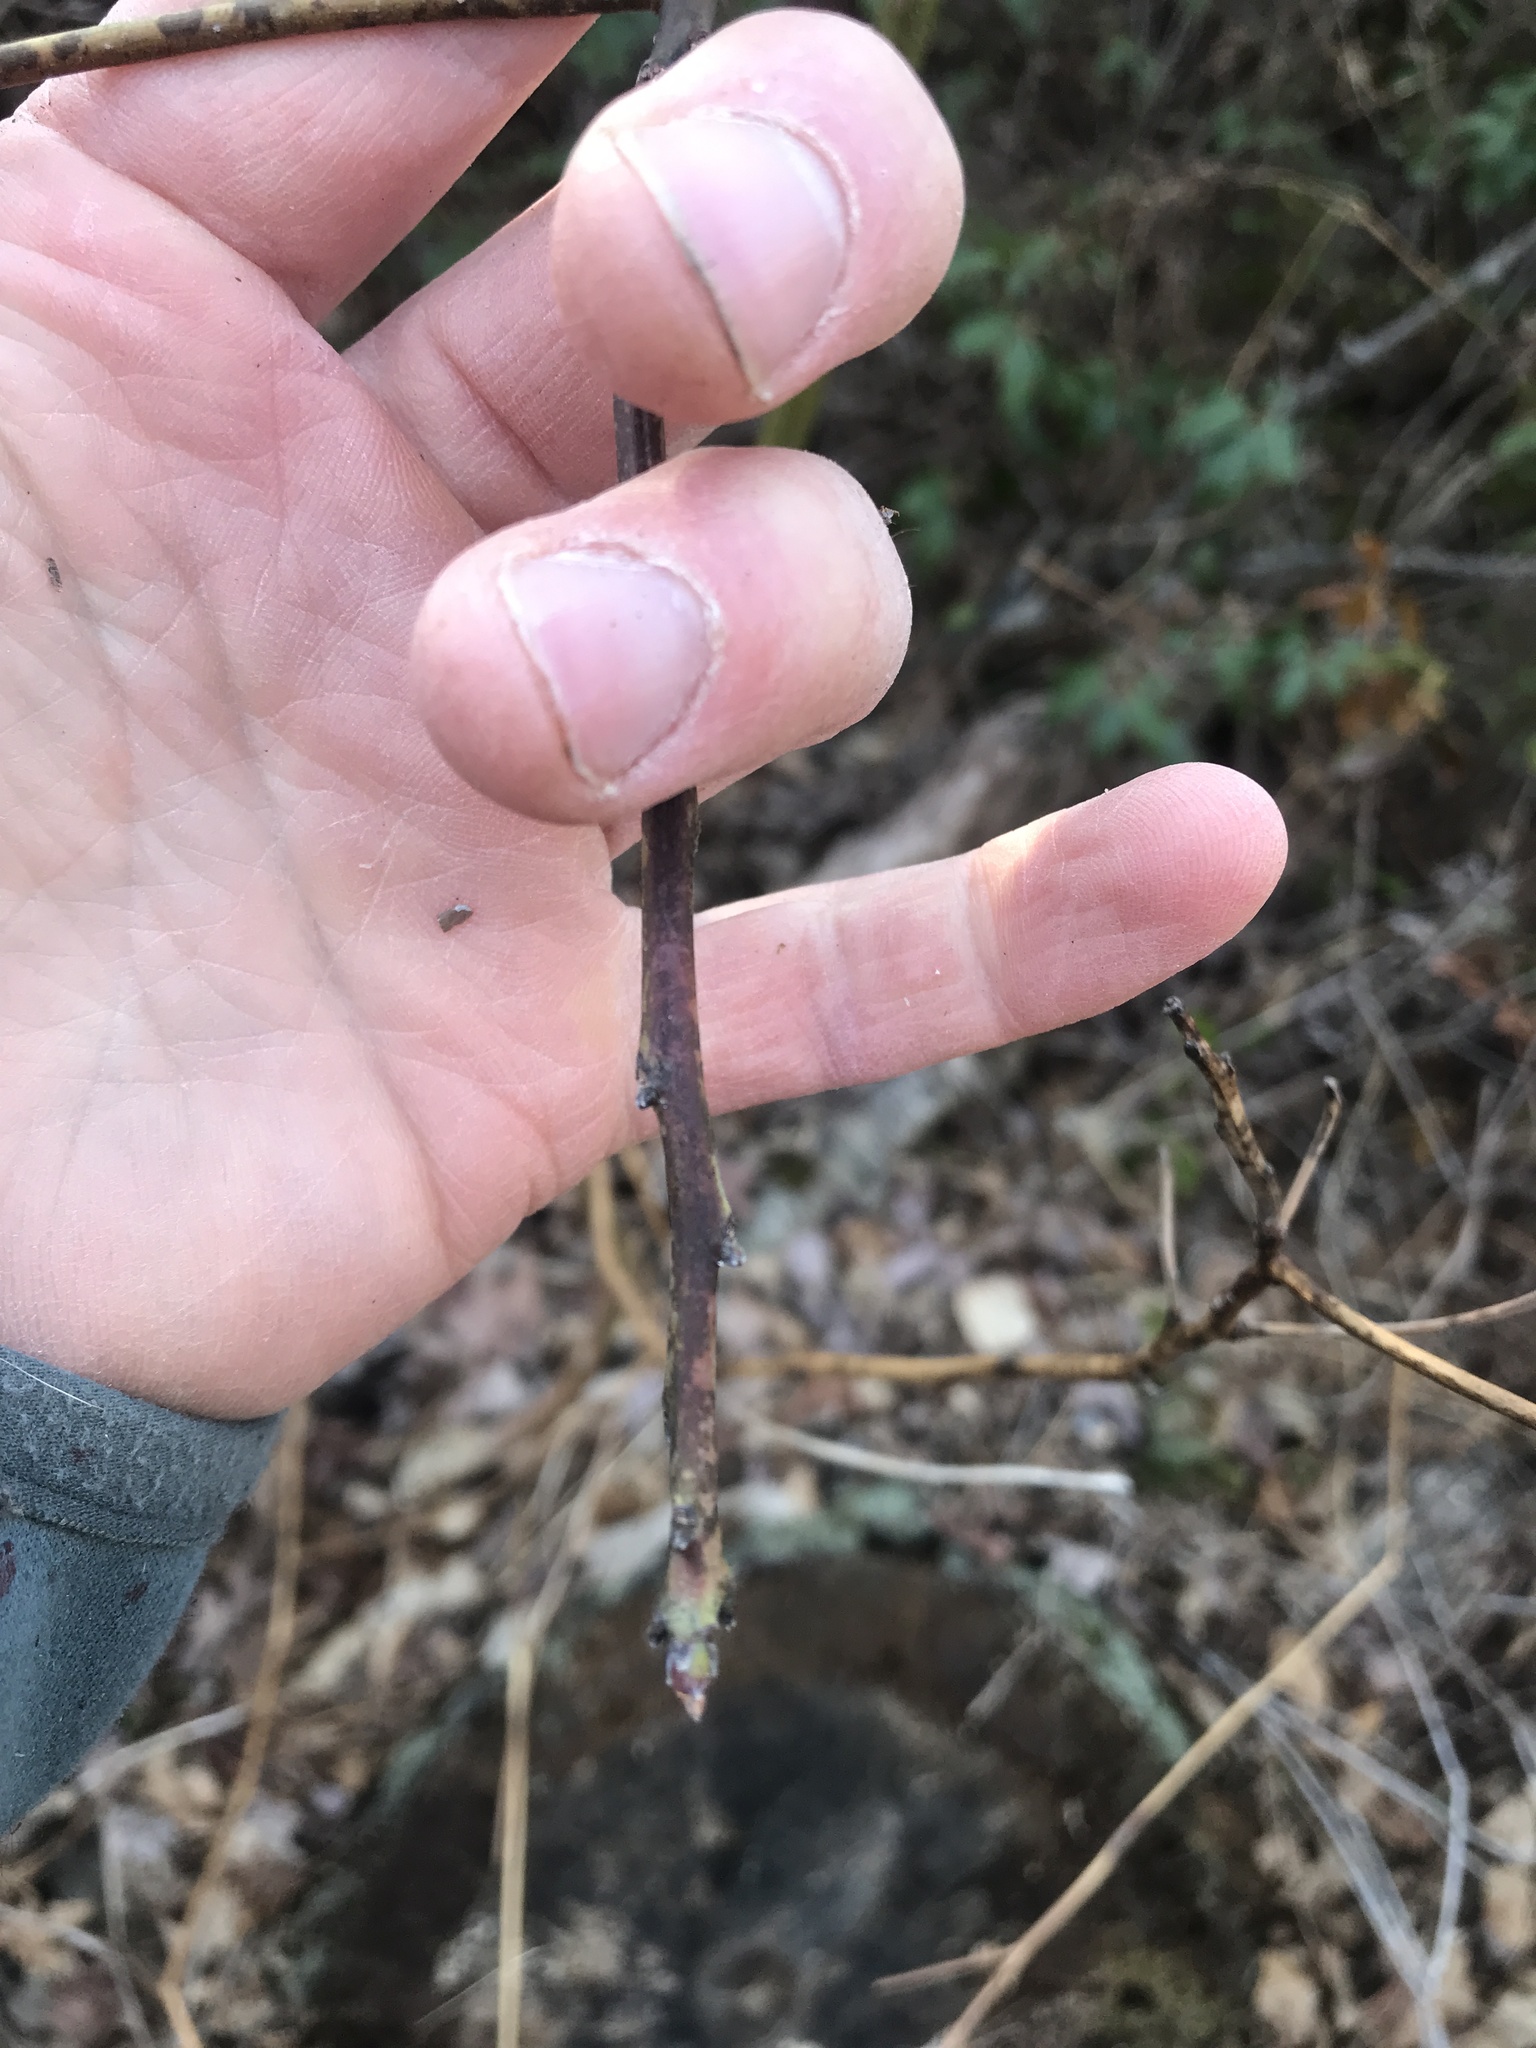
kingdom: Plantae
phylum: Tracheophyta
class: Magnoliopsida
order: Laurales
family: Lauraceae
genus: Sassafras
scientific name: Sassafras albidum
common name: Sassafras
